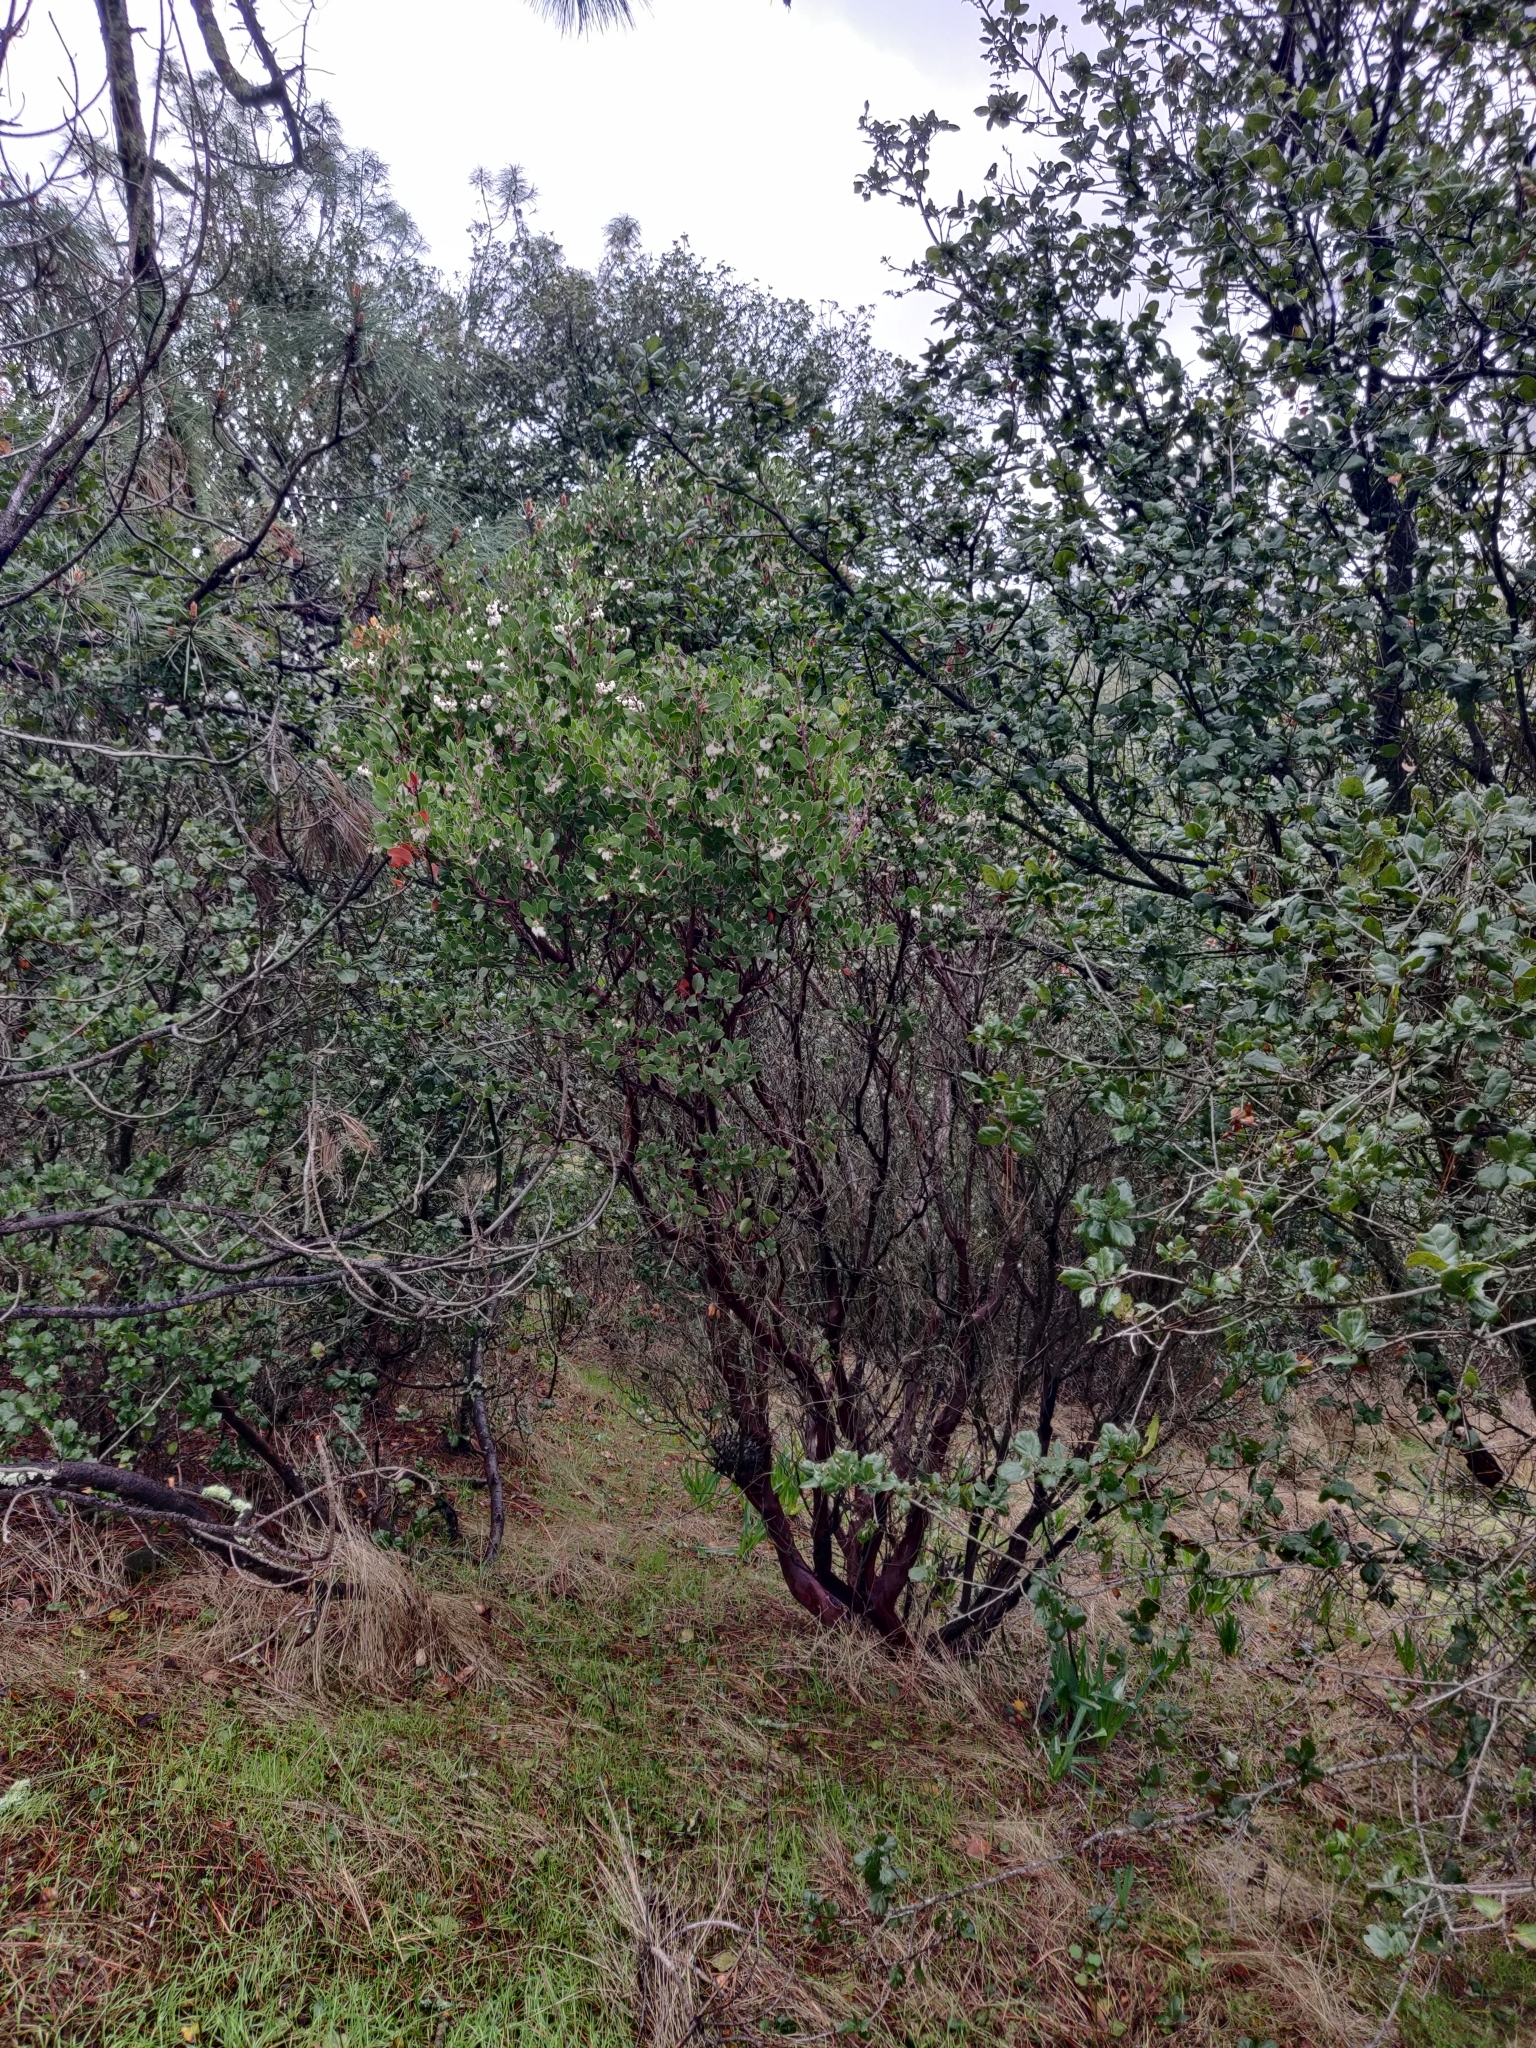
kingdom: Plantae
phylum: Tracheophyta
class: Magnoliopsida
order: Ericales
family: Ericaceae
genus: Arctostaphylos
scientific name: Arctostaphylos manzanita
